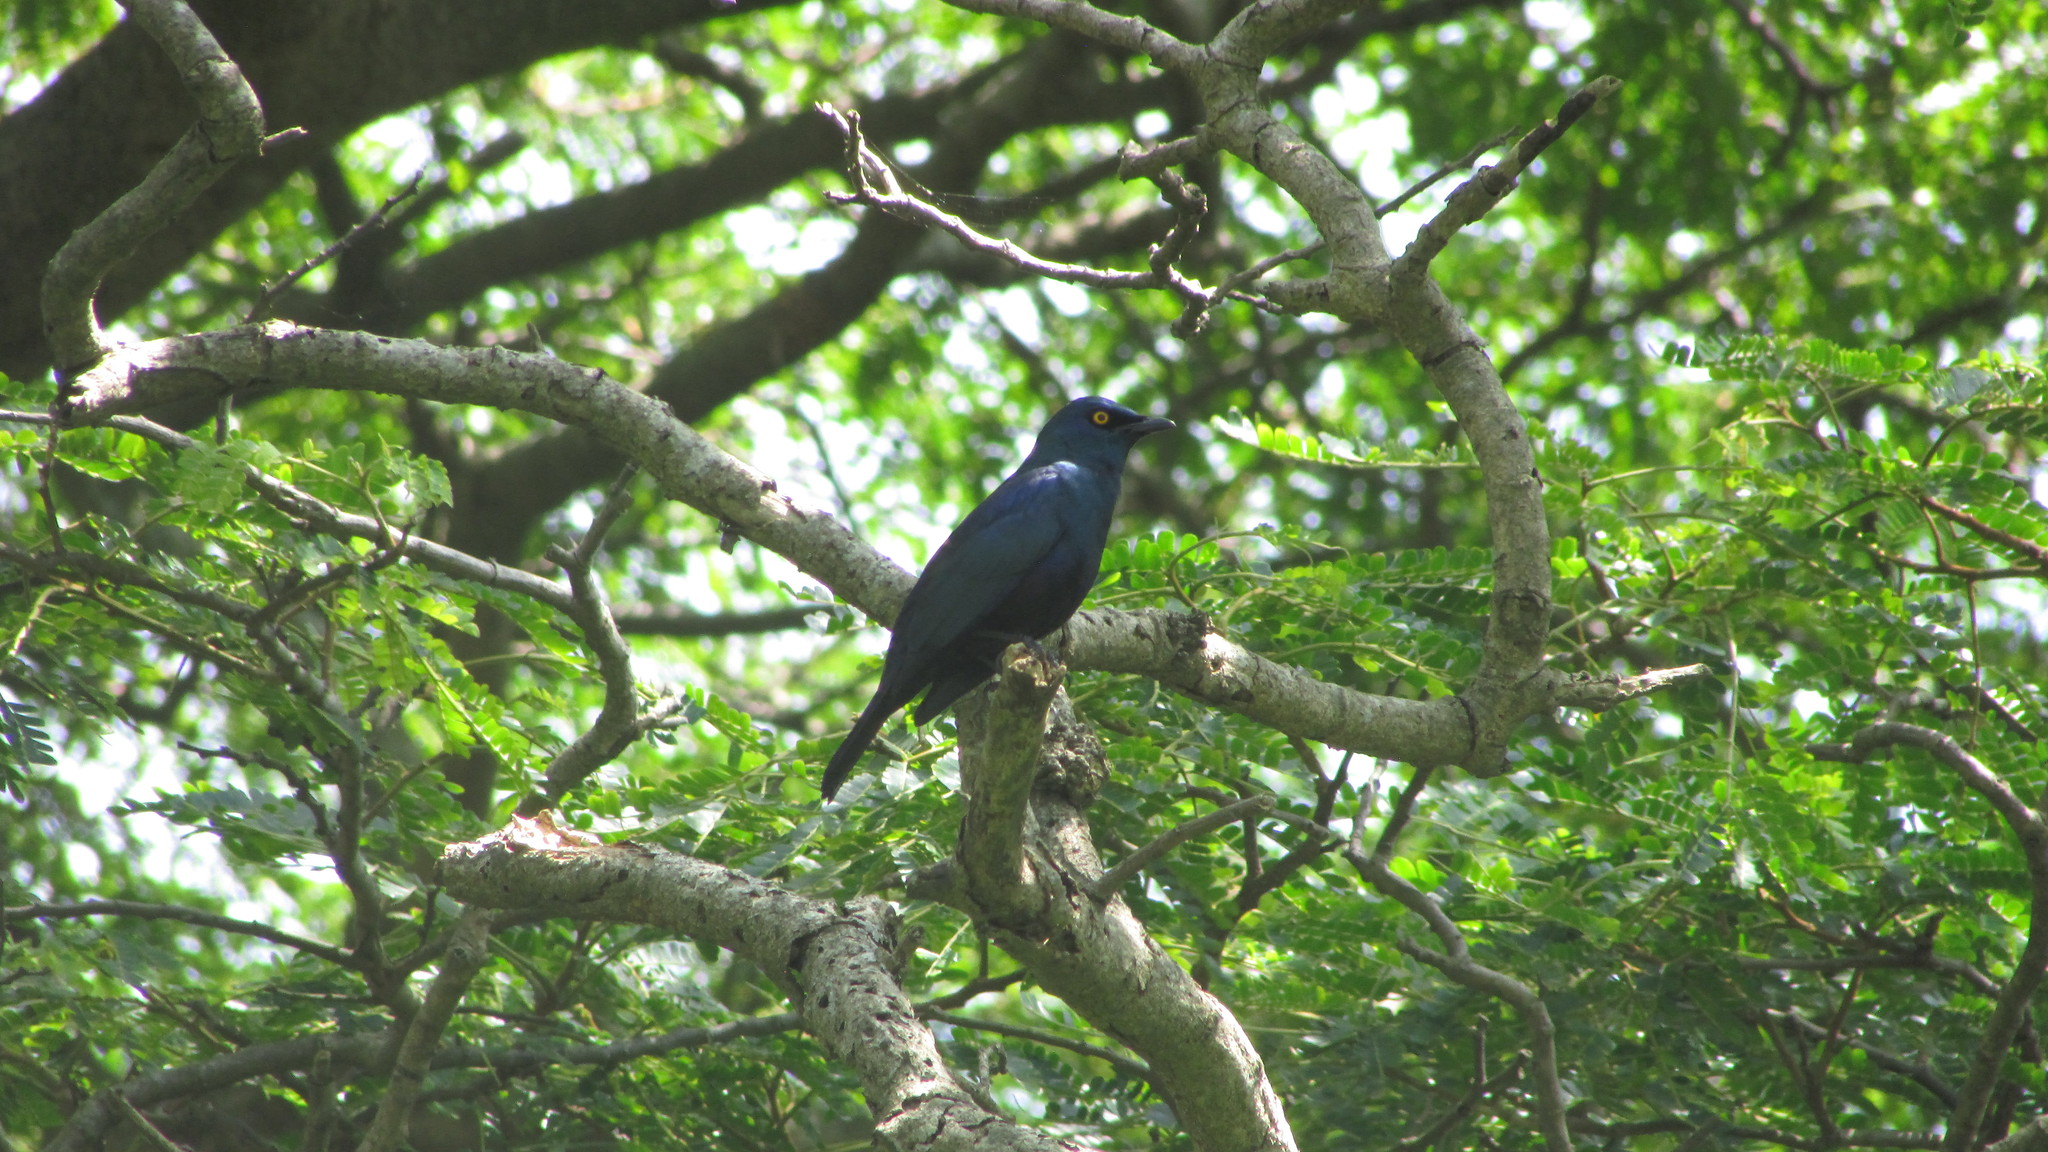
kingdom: Animalia
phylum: Chordata
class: Aves
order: Passeriformes
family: Sturnidae
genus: Notopholia
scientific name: Notopholia corrusca
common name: Black-bellied starling
